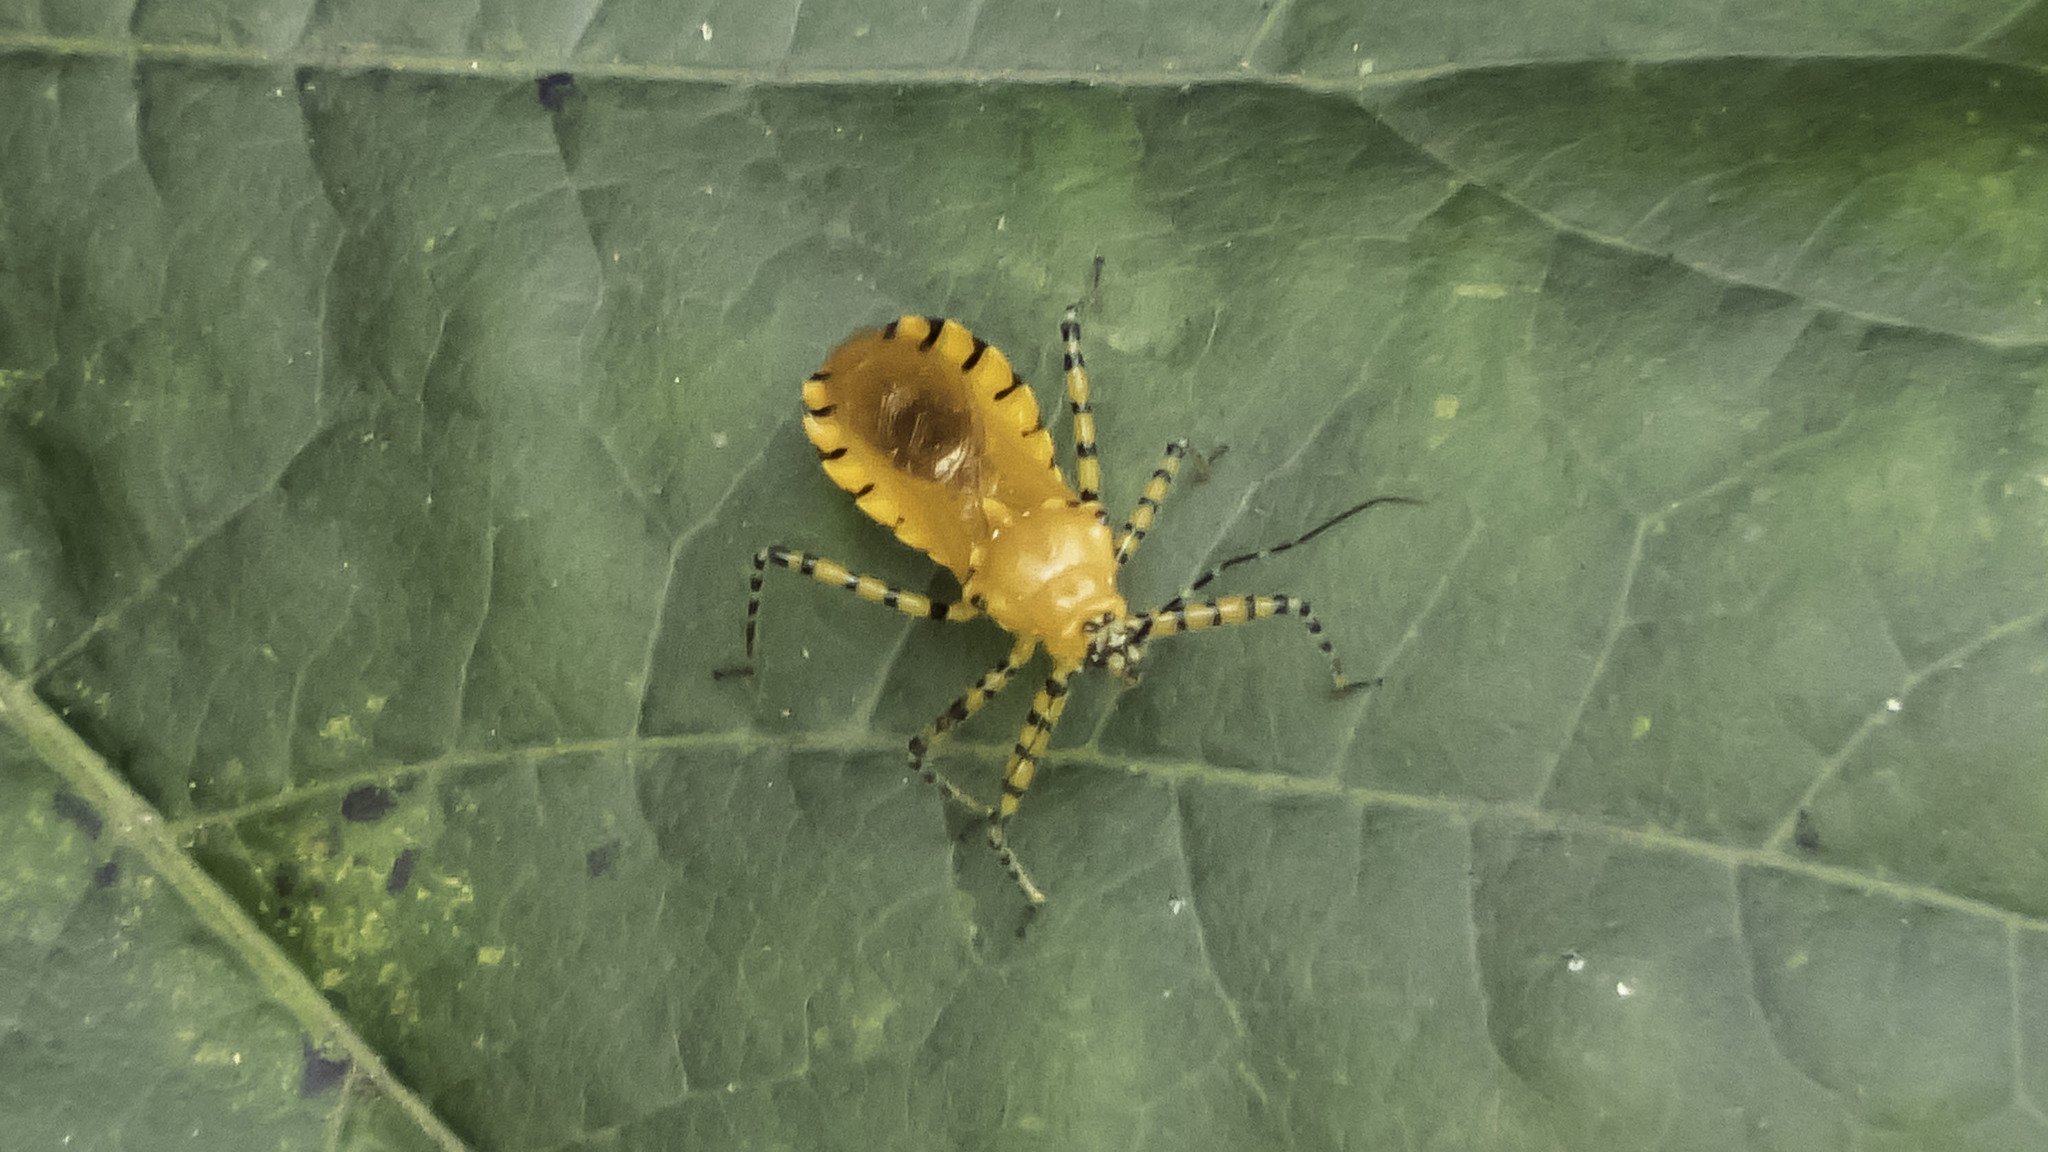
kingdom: Animalia
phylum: Arthropoda
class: Insecta
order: Hemiptera
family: Reduviidae
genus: Pselliopus
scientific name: Pselliopus barberi
